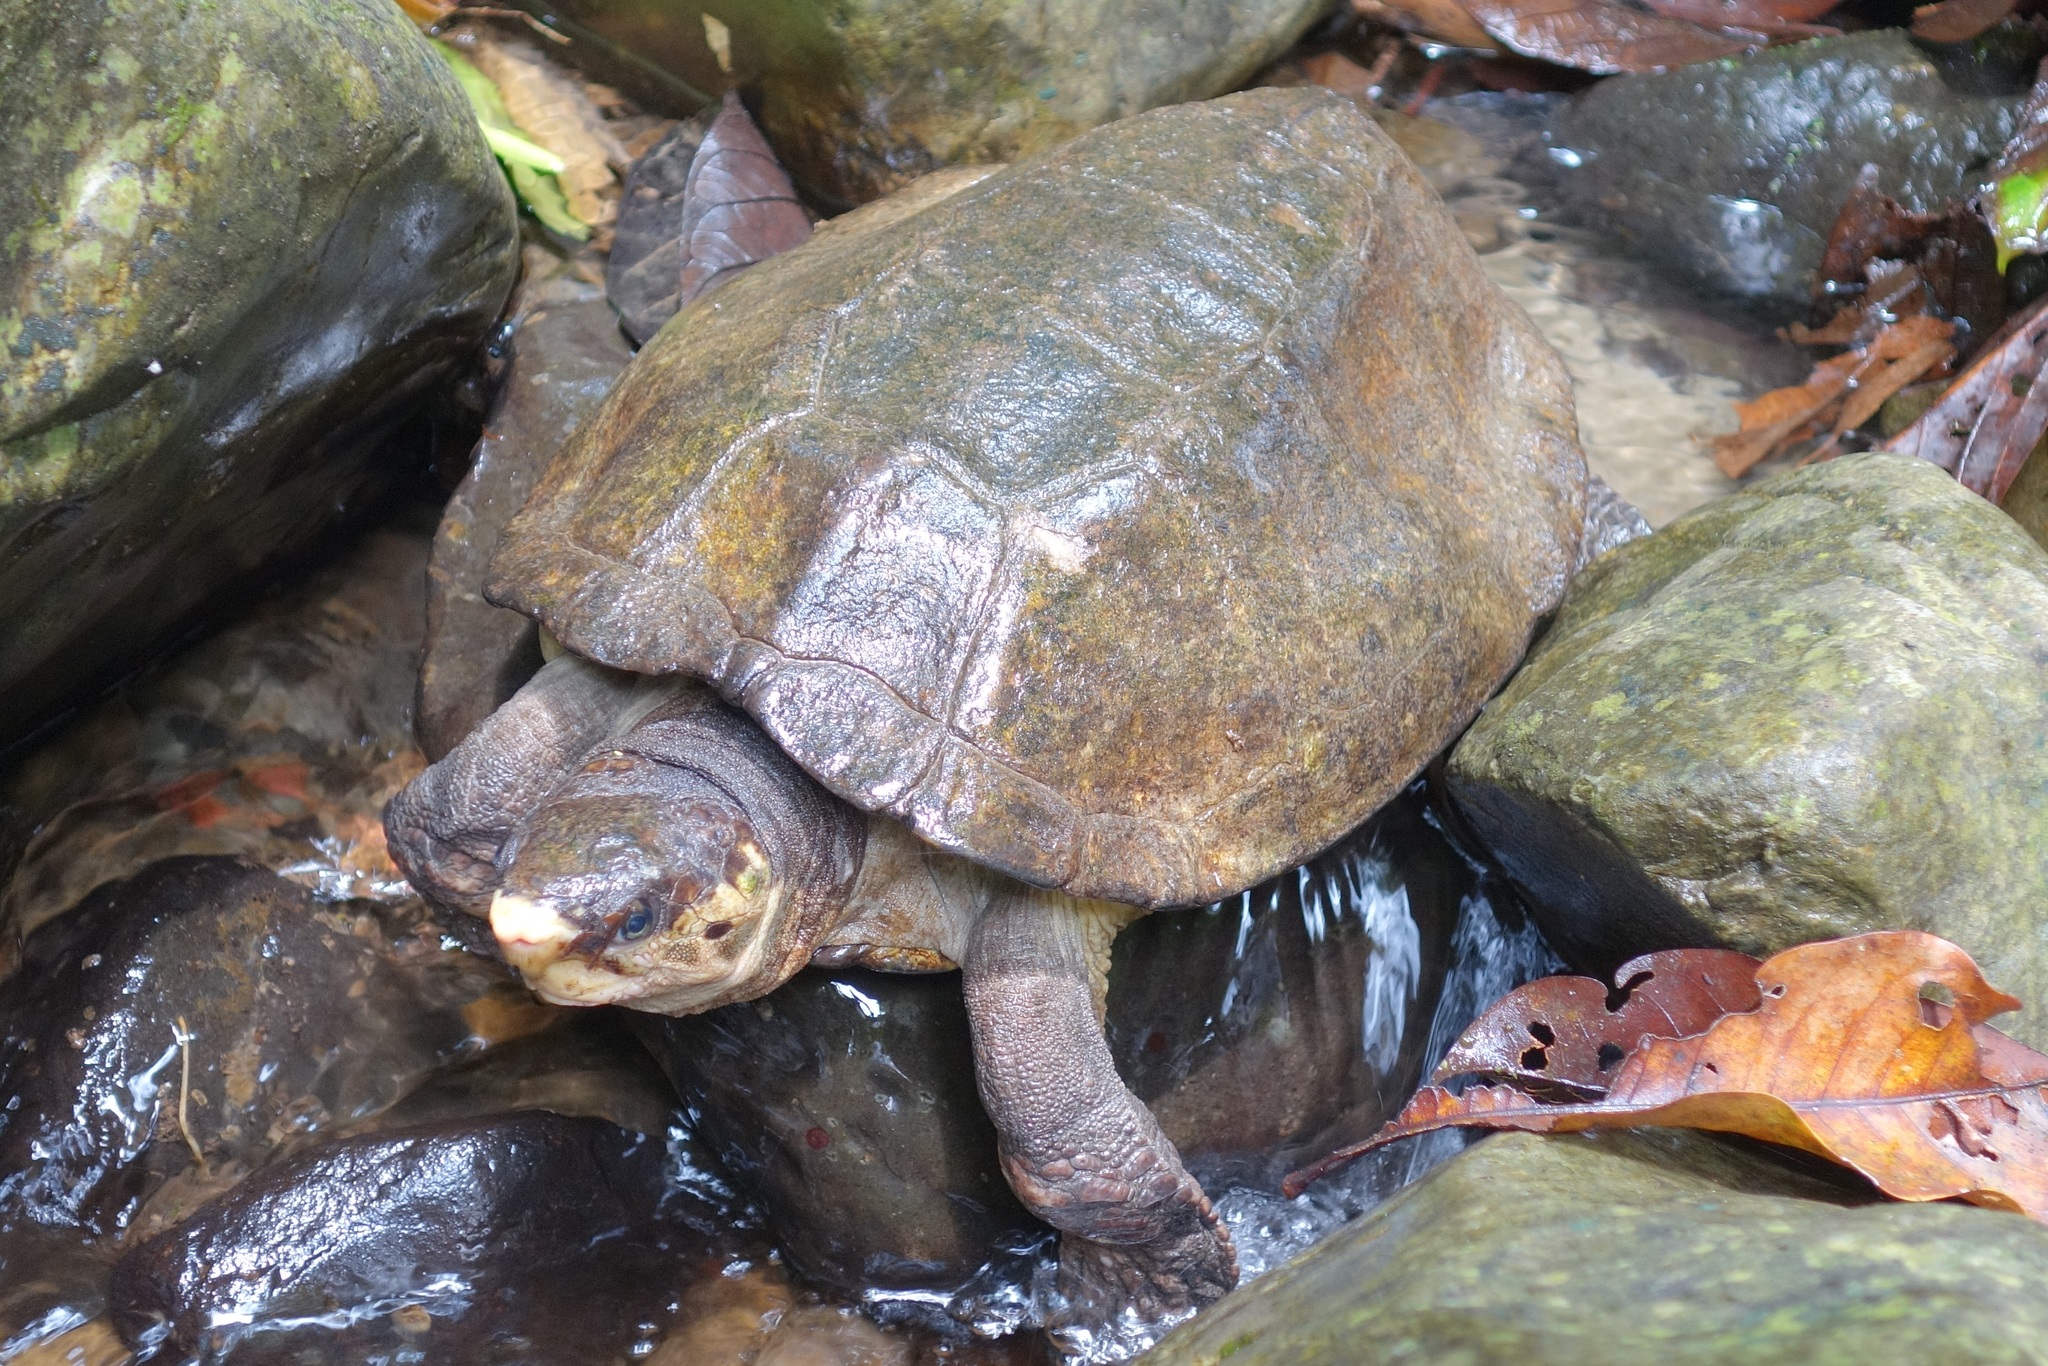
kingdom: Animalia
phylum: Chordata
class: Testudines
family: Geoemydidae
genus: Notochelys
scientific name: Notochelys platynota
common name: Malayan flat-shelled turtle
